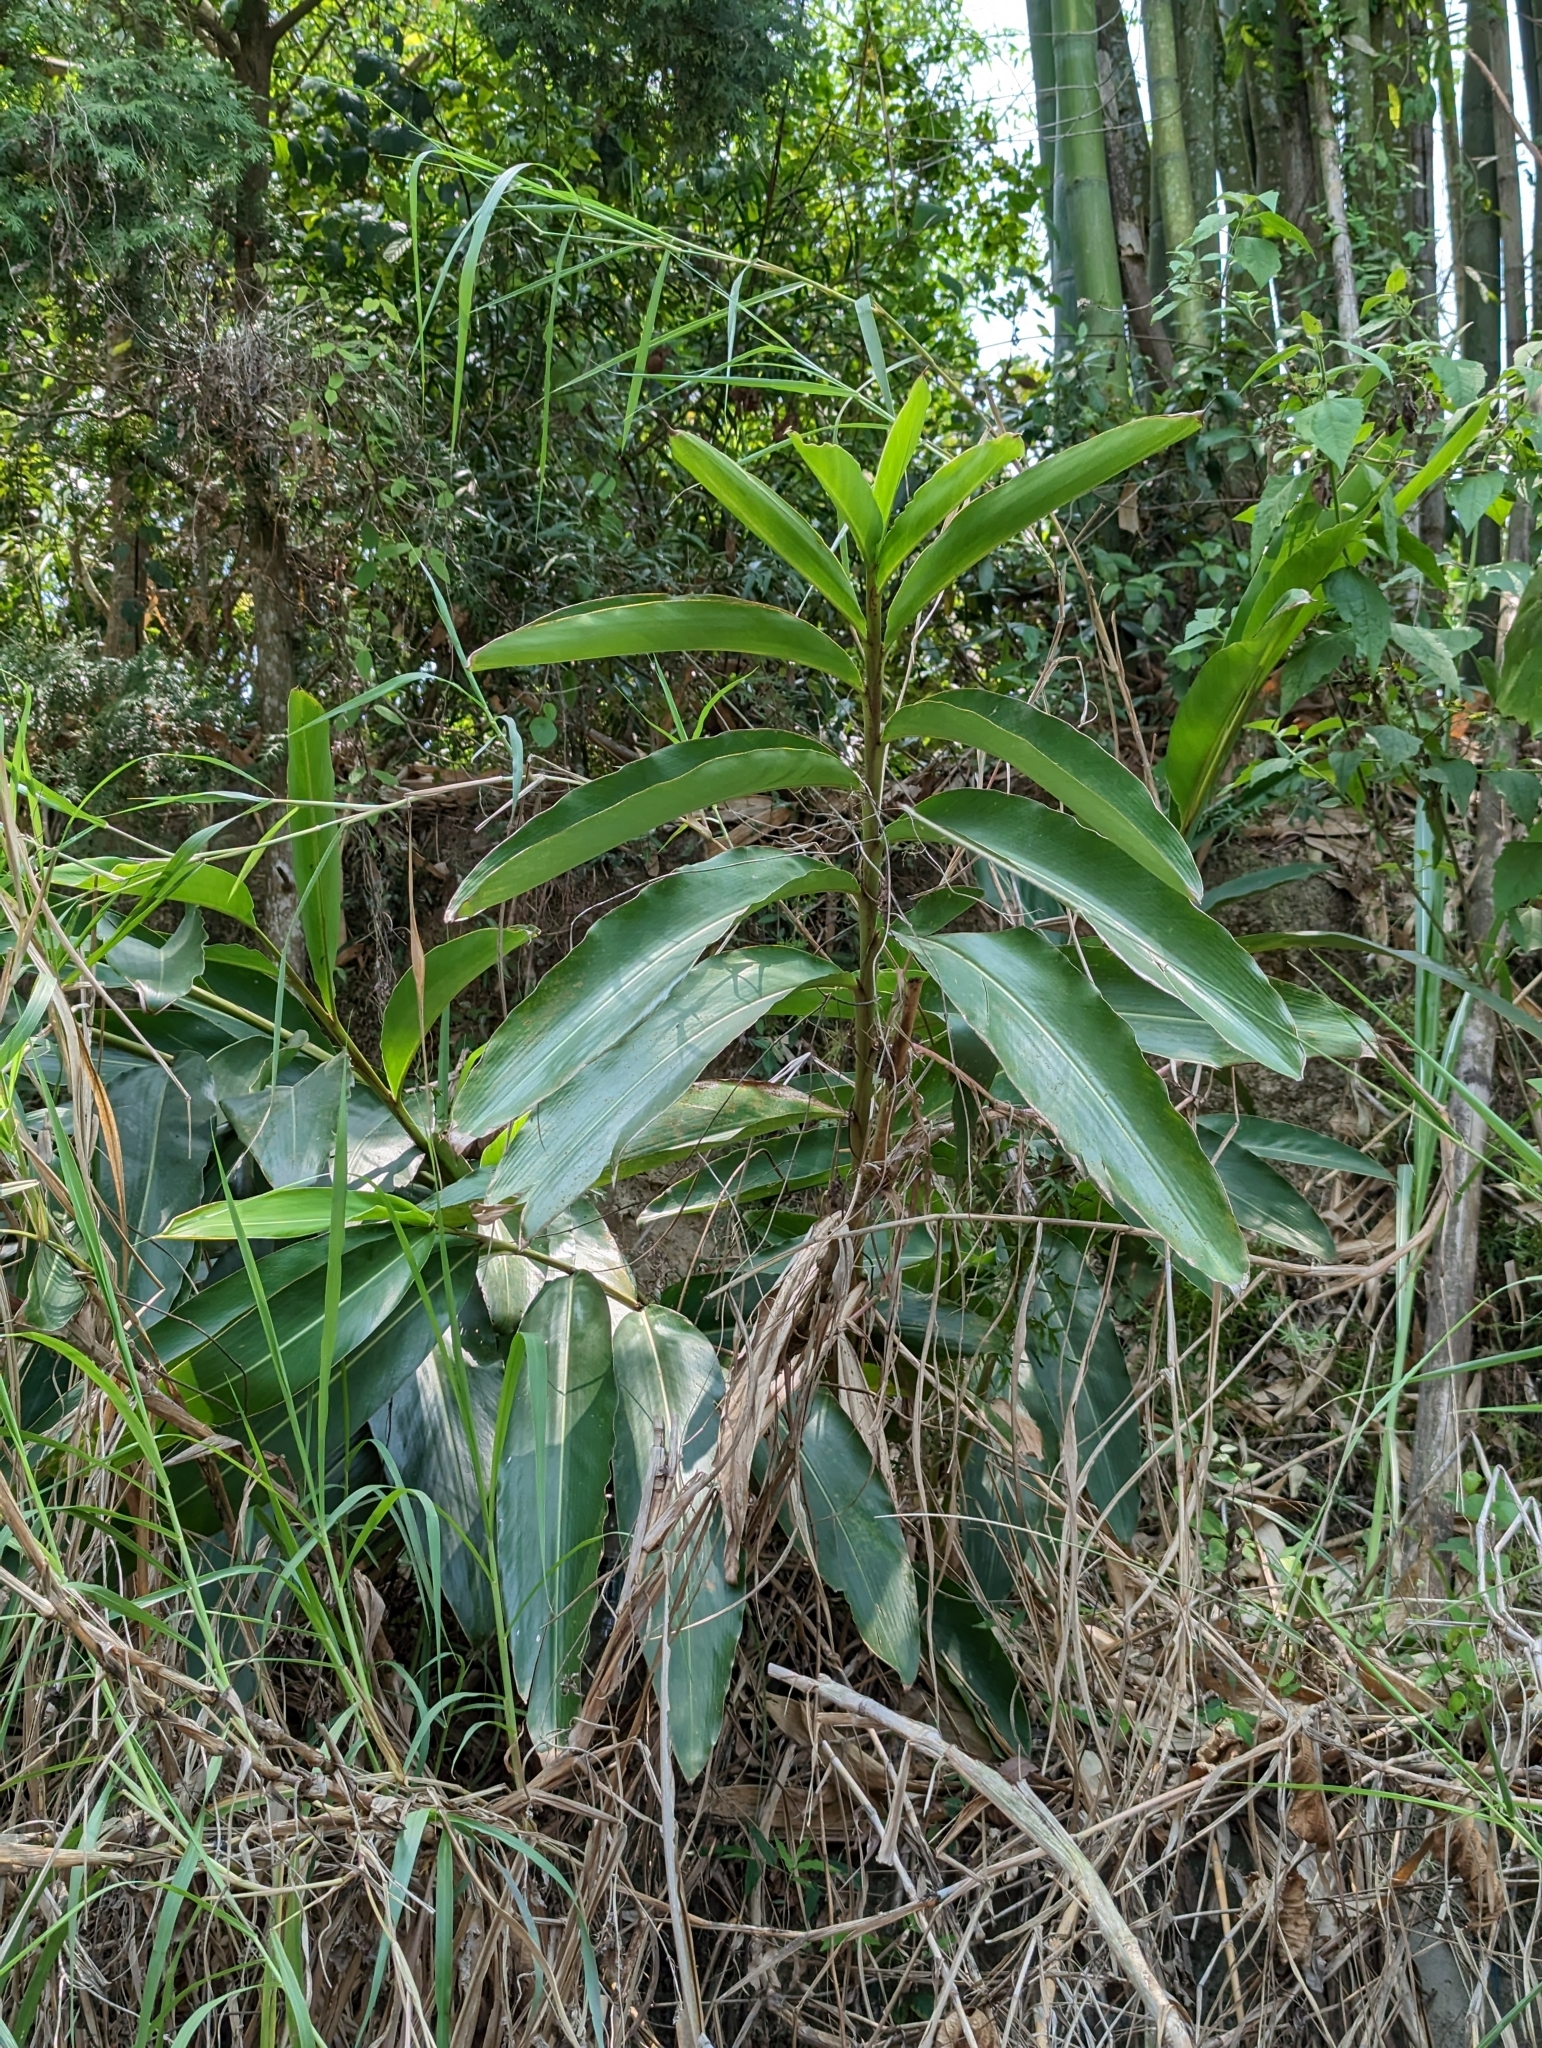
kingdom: Plantae
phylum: Tracheophyta
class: Liliopsida
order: Zingiberales
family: Zingiberaceae
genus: Alpinia
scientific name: Alpinia zerumbet
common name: Shellplant
